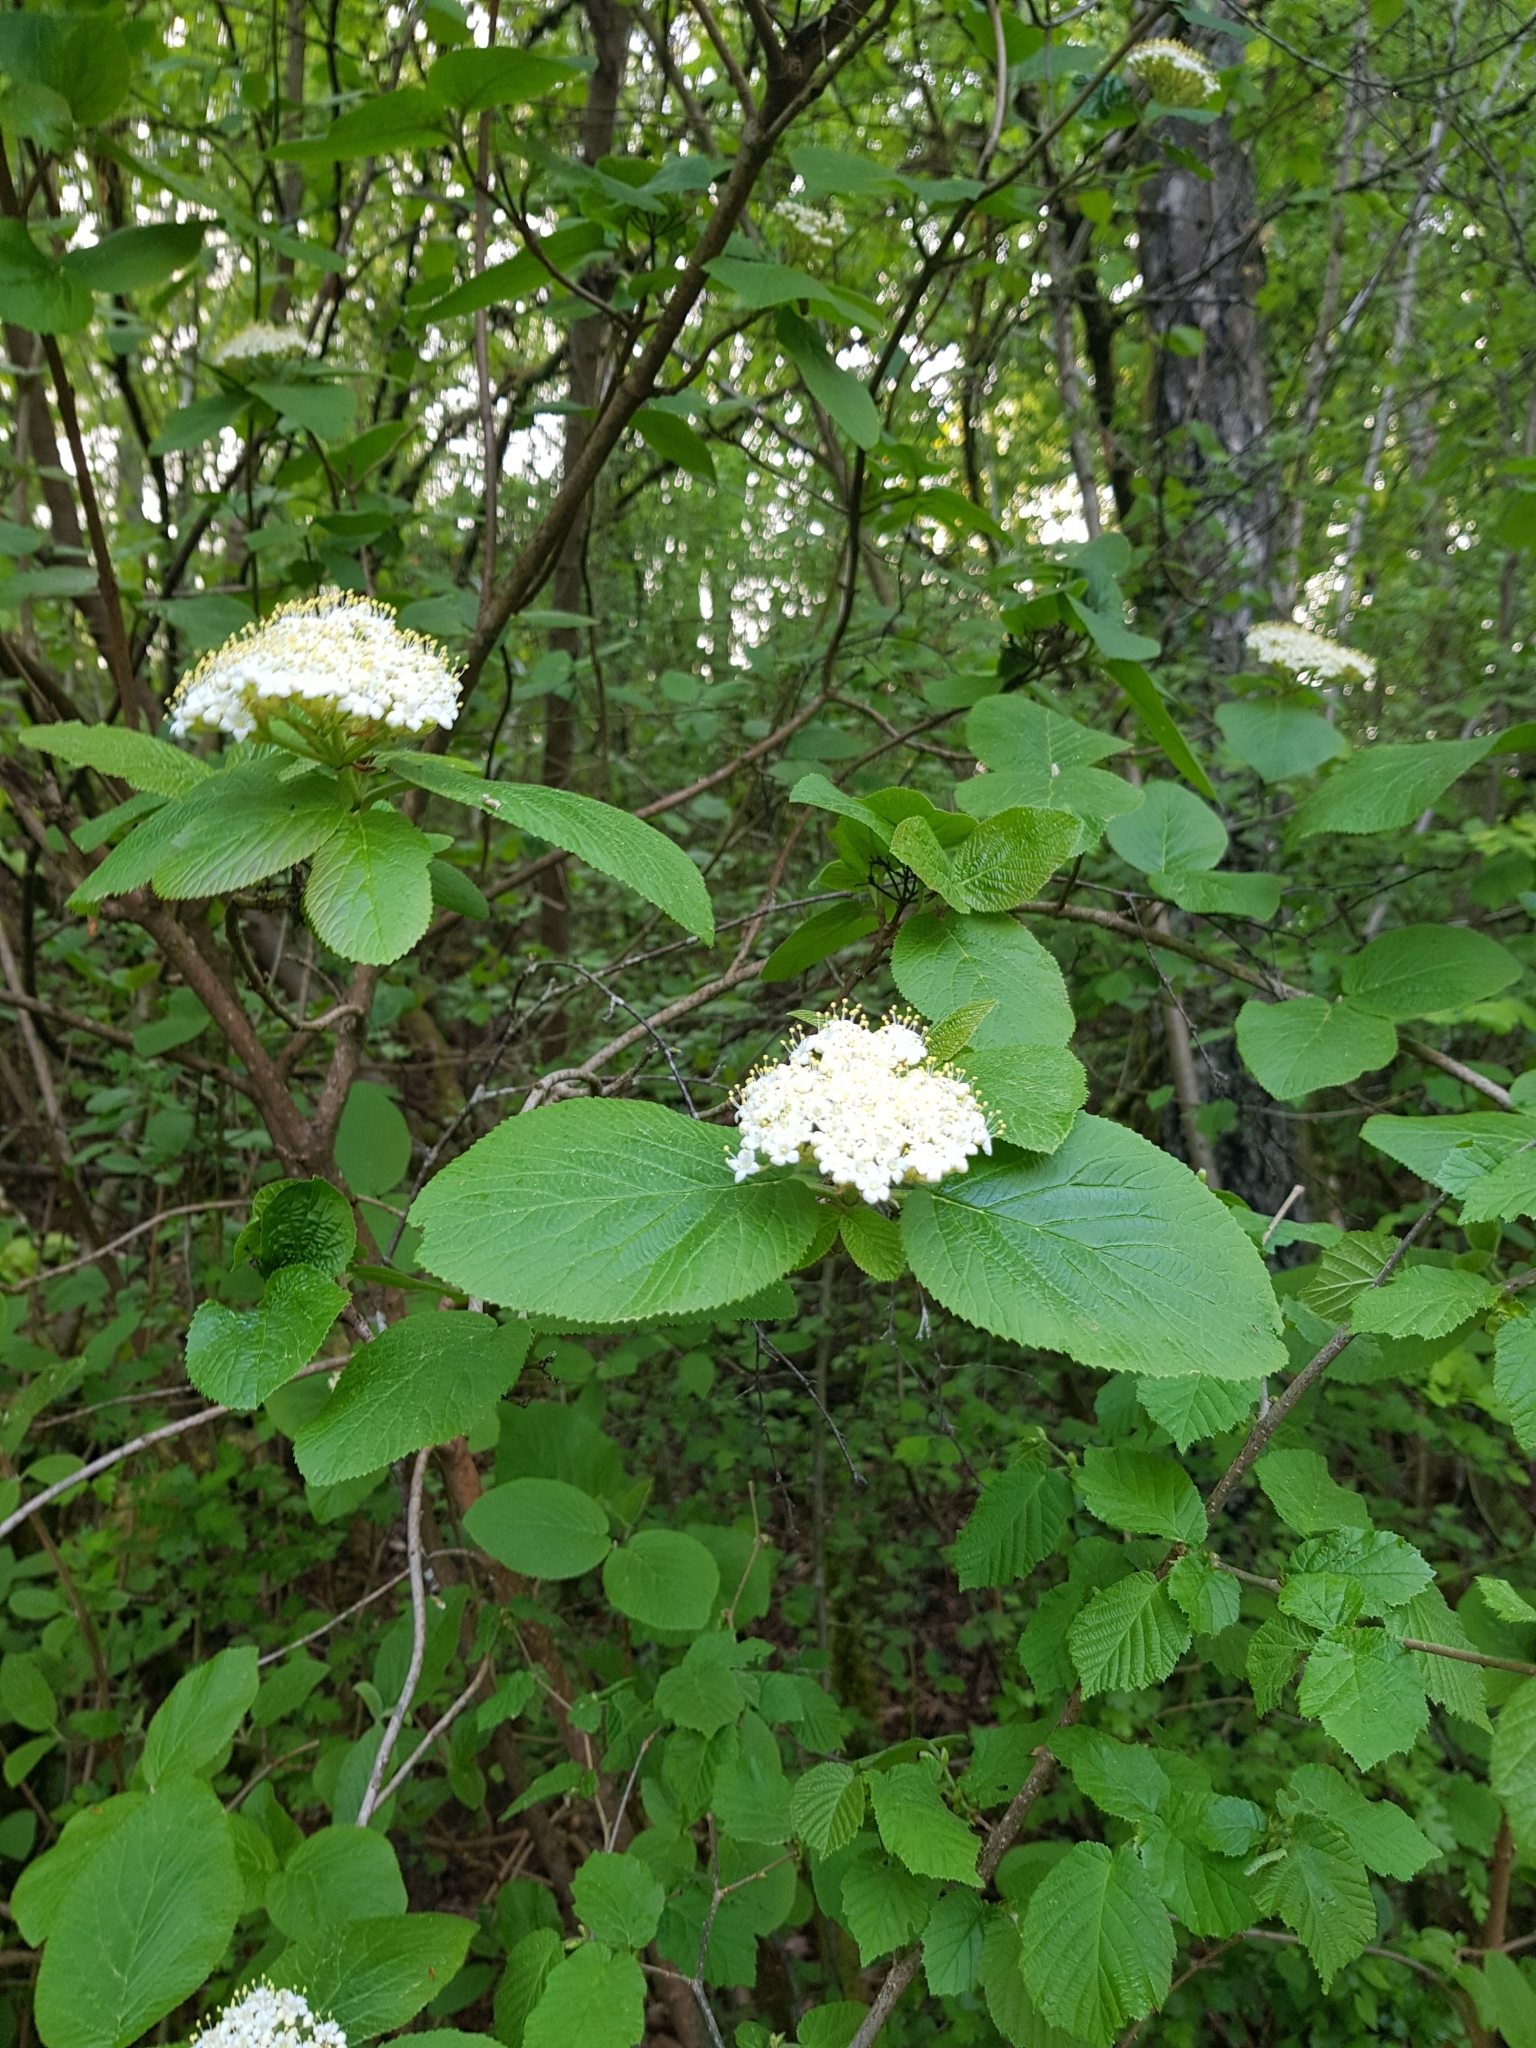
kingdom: Plantae
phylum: Tracheophyta
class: Magnoliopsida
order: Dipsacales
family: Viburnaceae
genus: Viburnum
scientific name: Viburnum lantana
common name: Wayfaring tree
